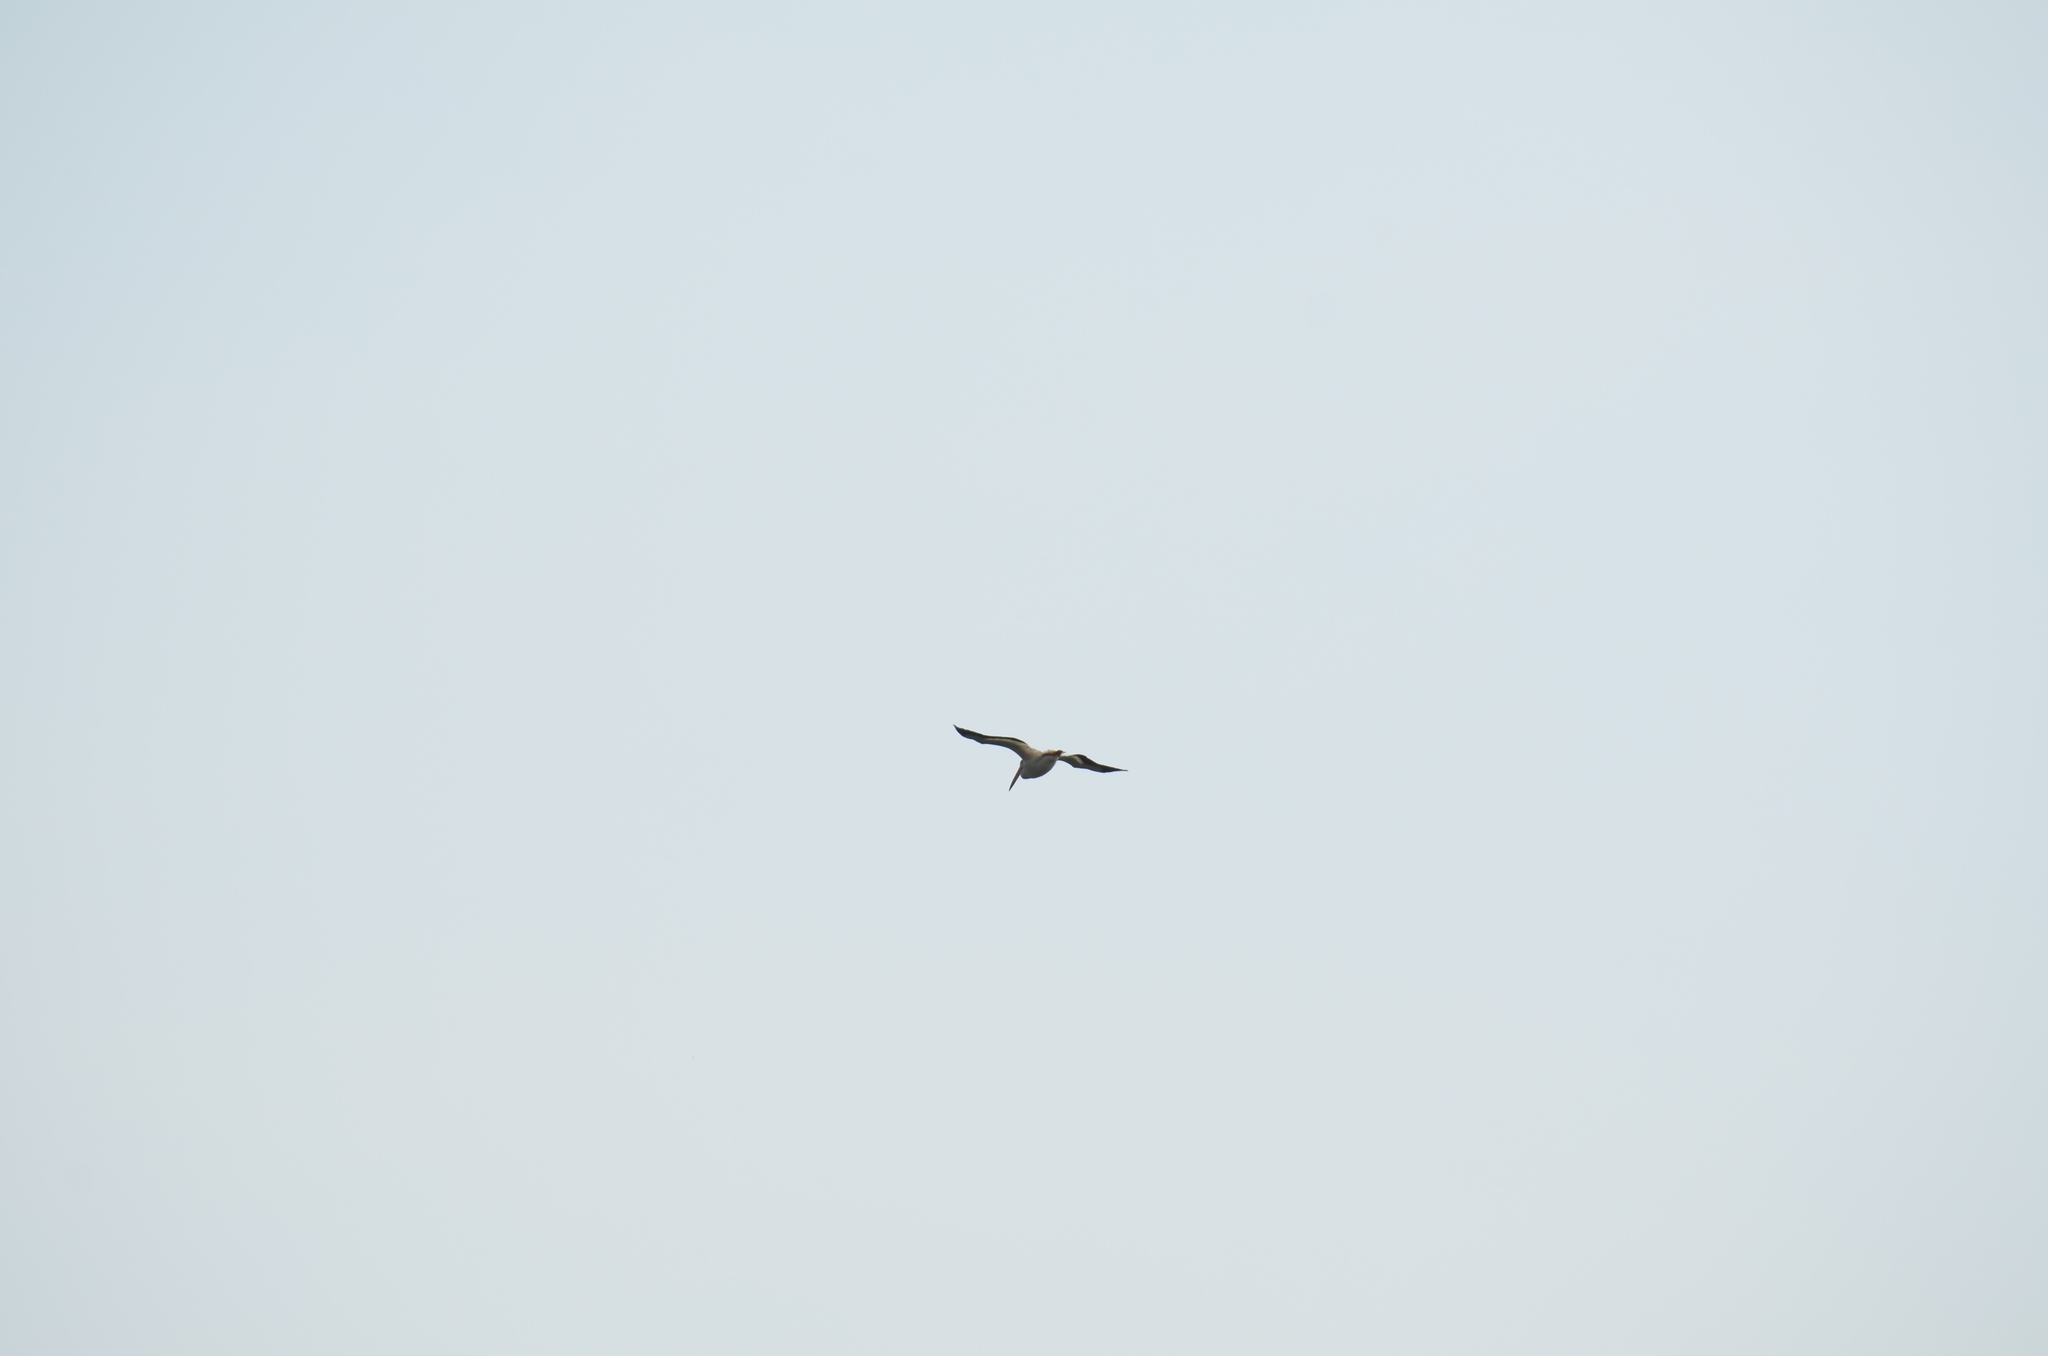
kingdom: Animalia
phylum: Chordata
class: Aves
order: Pelecaniformes
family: Pelecanidae
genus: Pelecanus
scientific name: Pelecanus erythrorhynchos
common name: American white pelican
